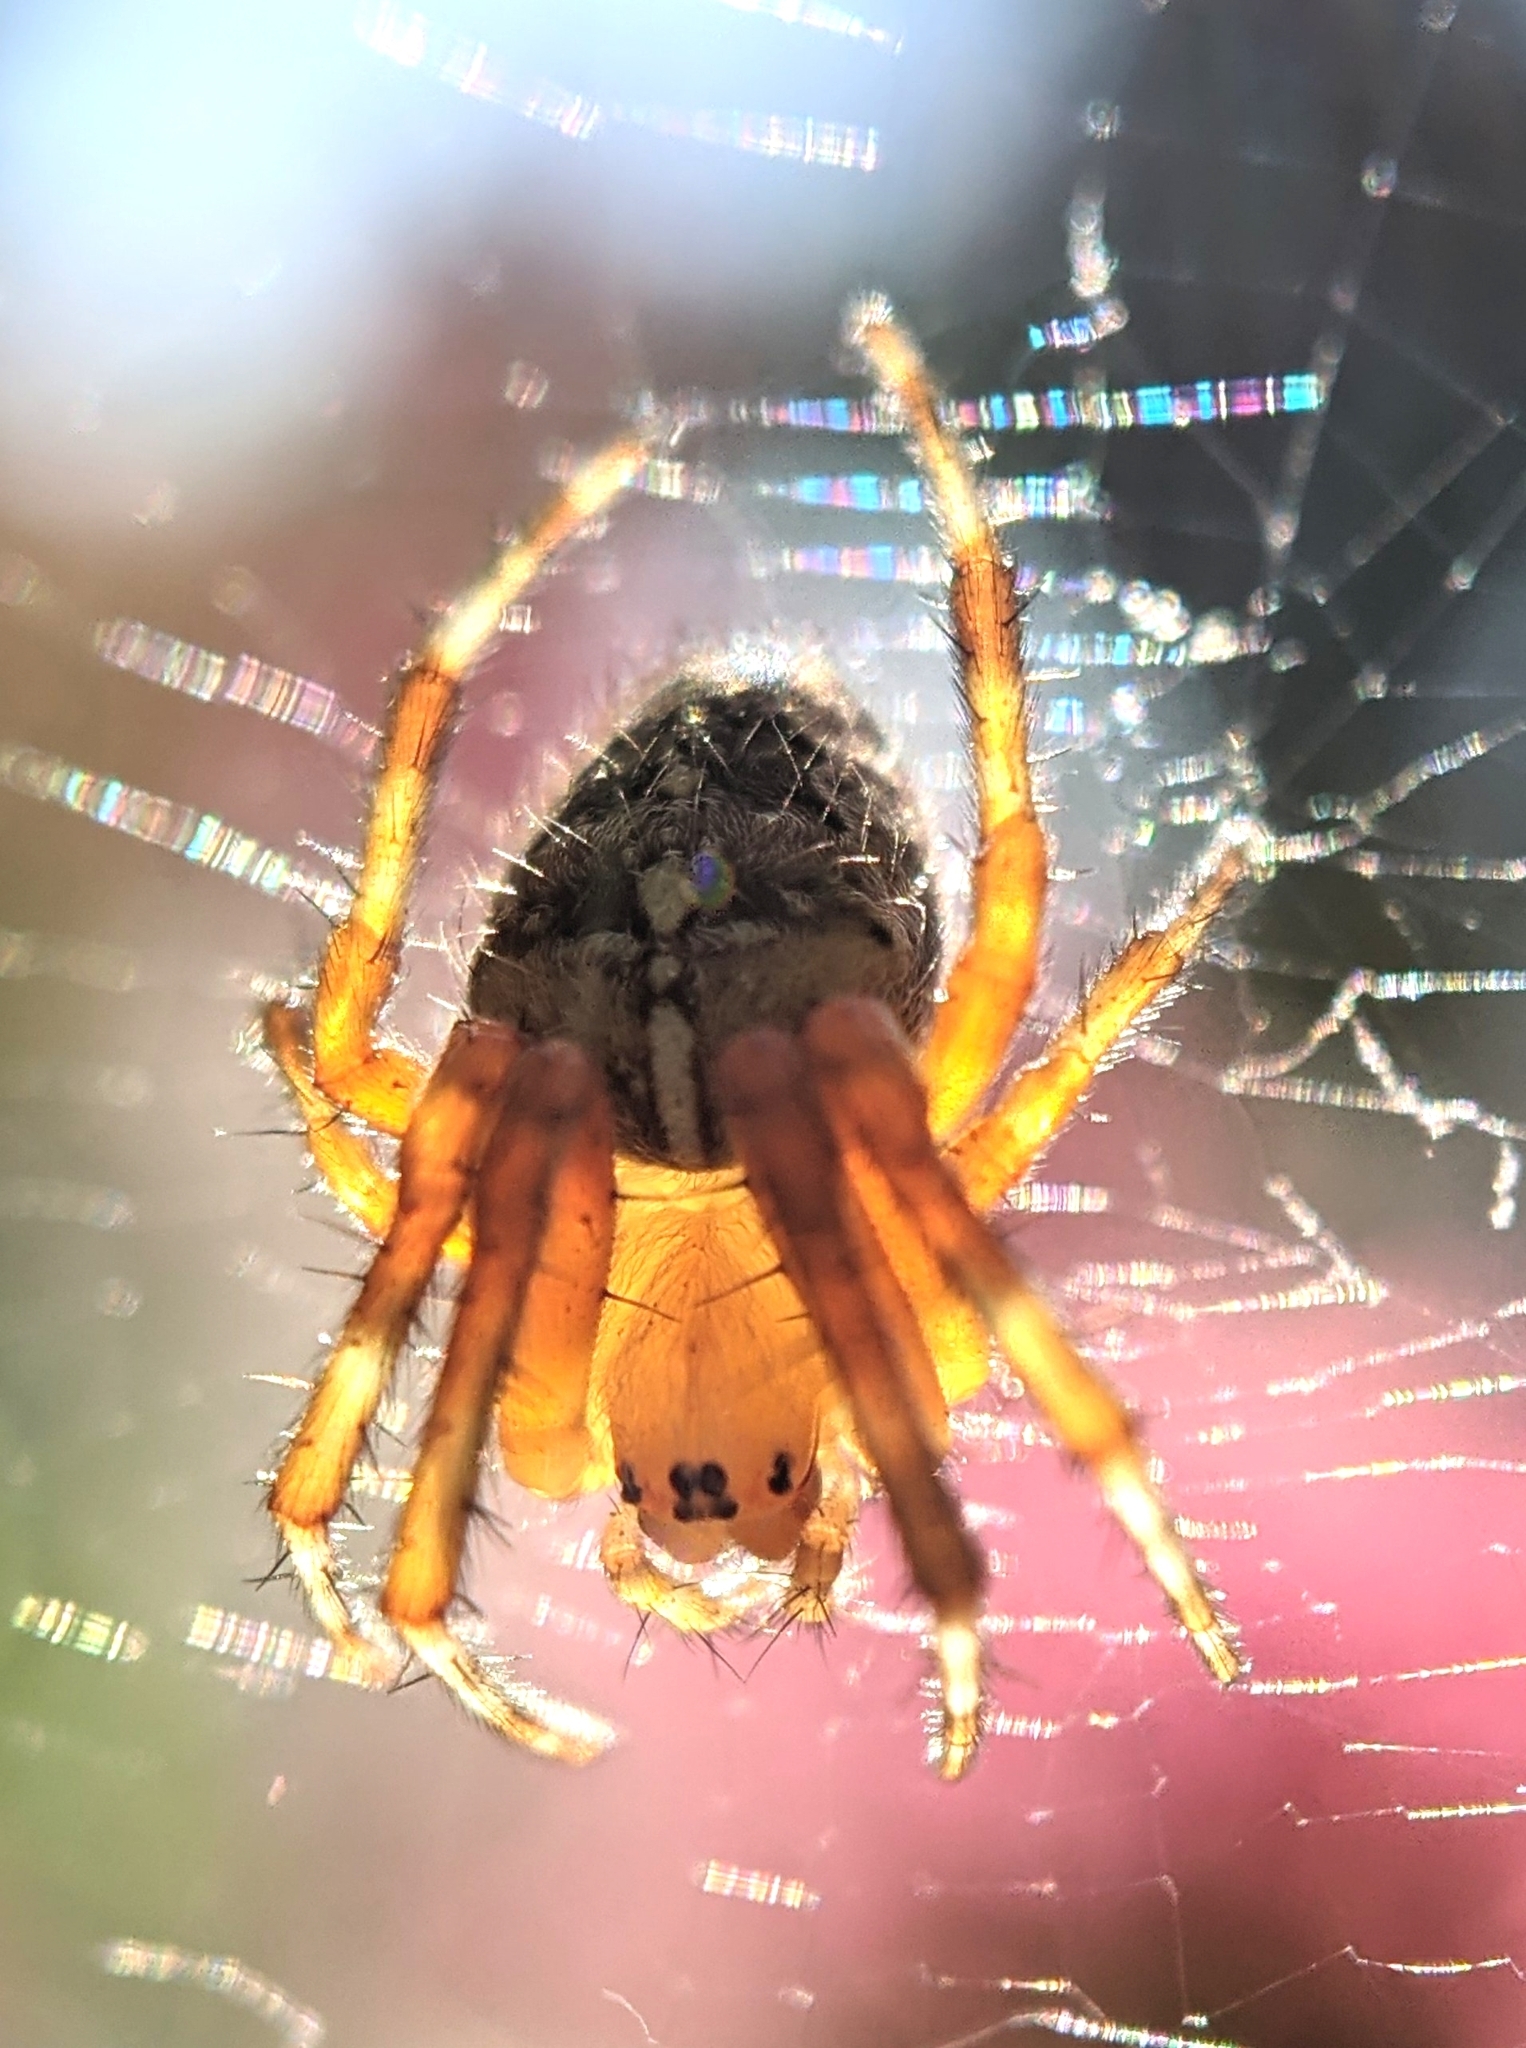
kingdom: Animalia
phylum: Arthropoda
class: Arachnida
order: Araneae
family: Araneidae
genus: Araneus
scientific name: Araneus diadematus
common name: Cross orbweaver
